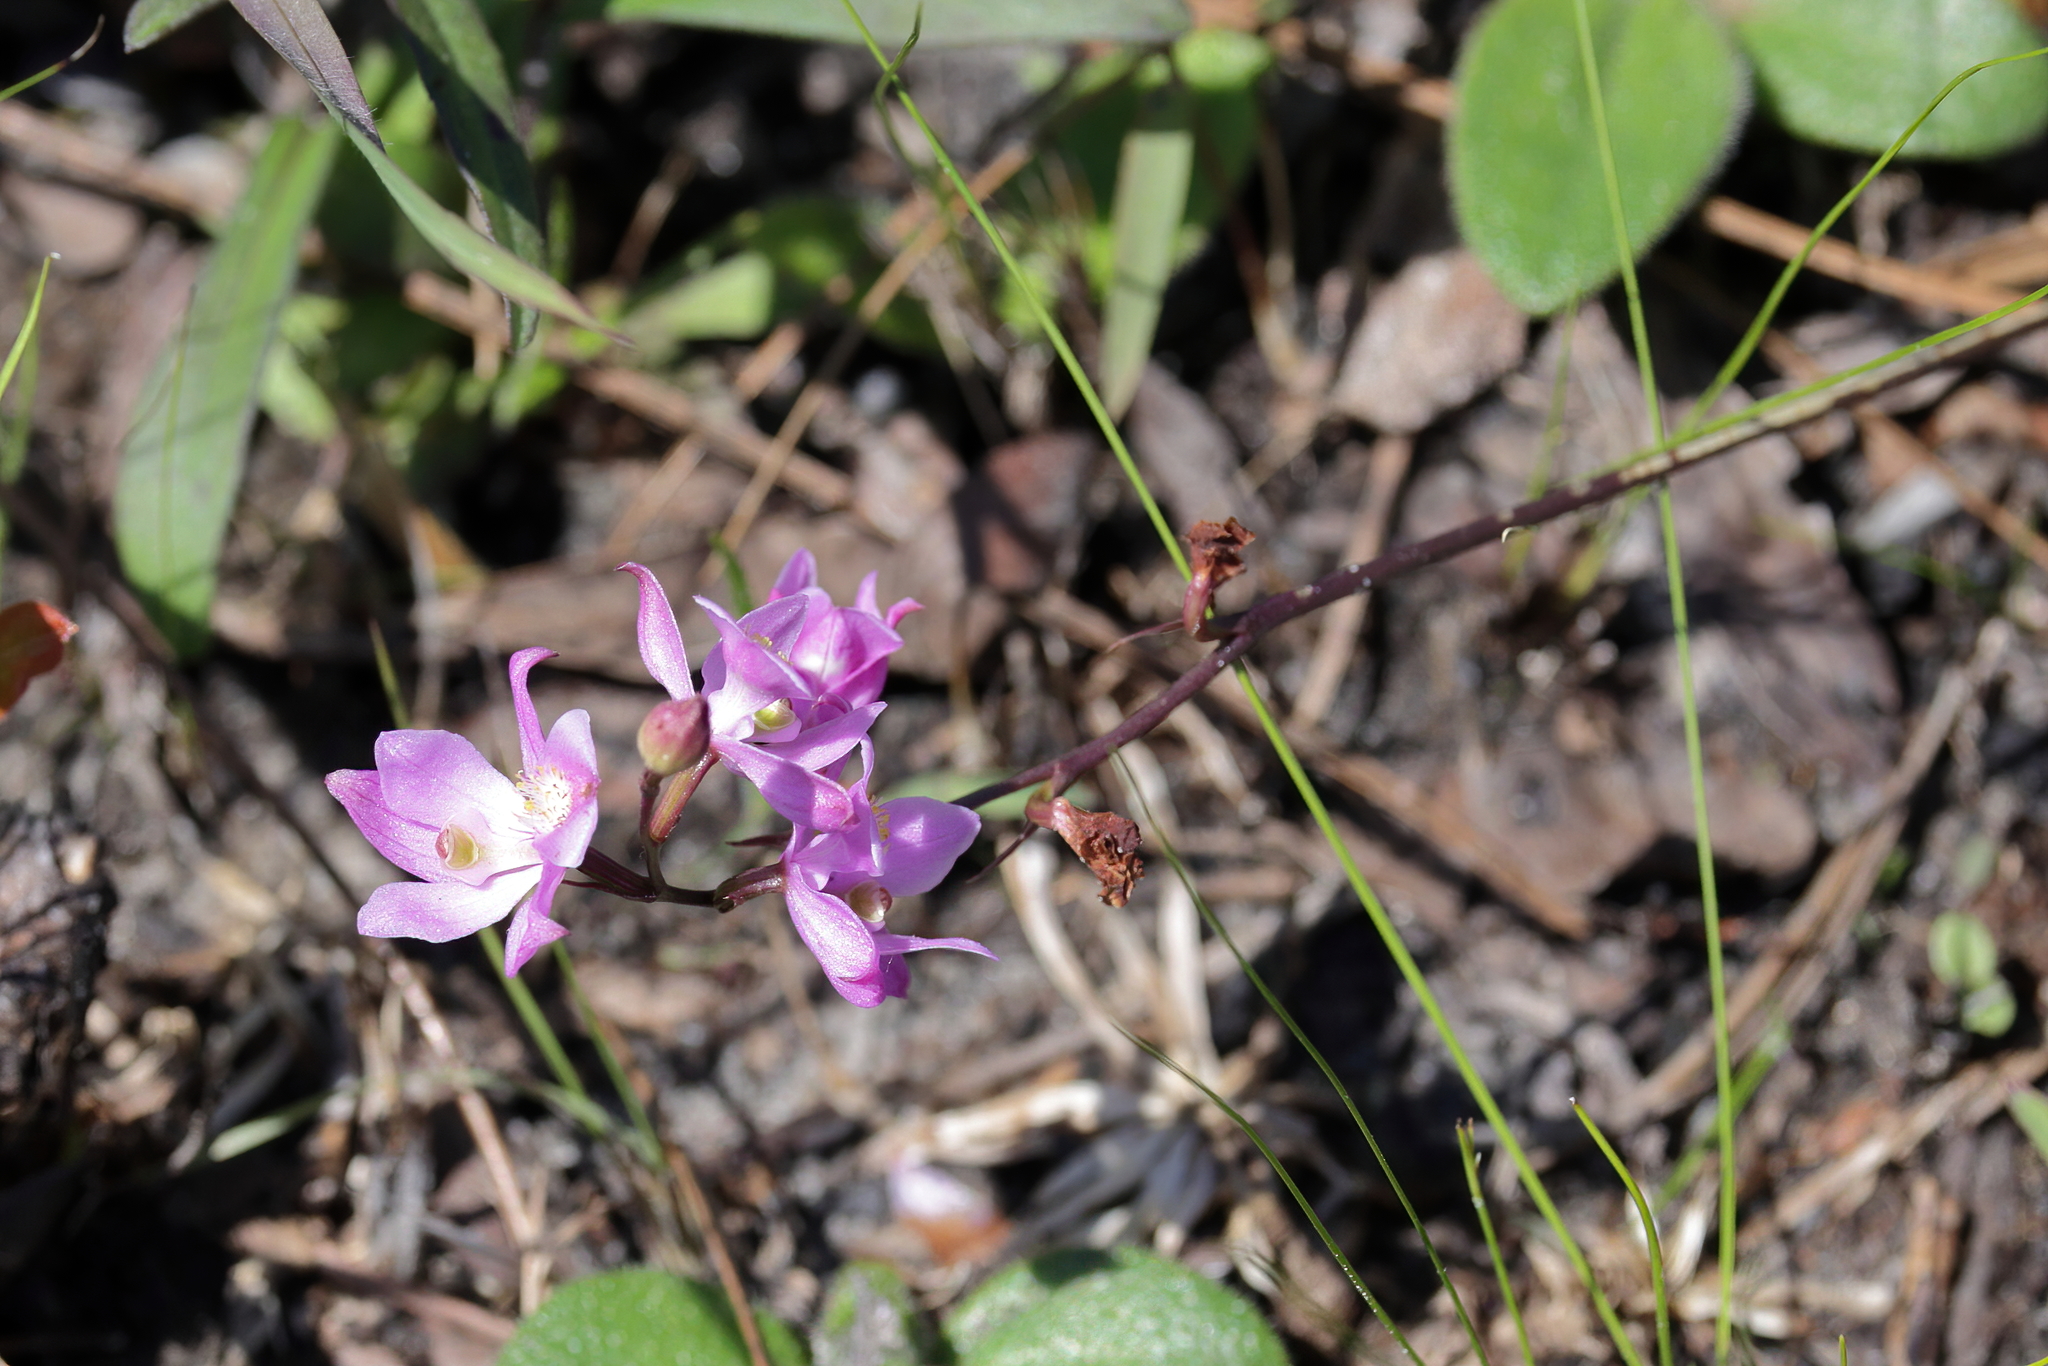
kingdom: Plantae
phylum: Tracheophyta
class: Liliopsida
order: Asparagales
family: Orchidaceae
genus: Calopogon
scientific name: Calopogon multiflorus
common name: Many-flowered grass-pink orchid
